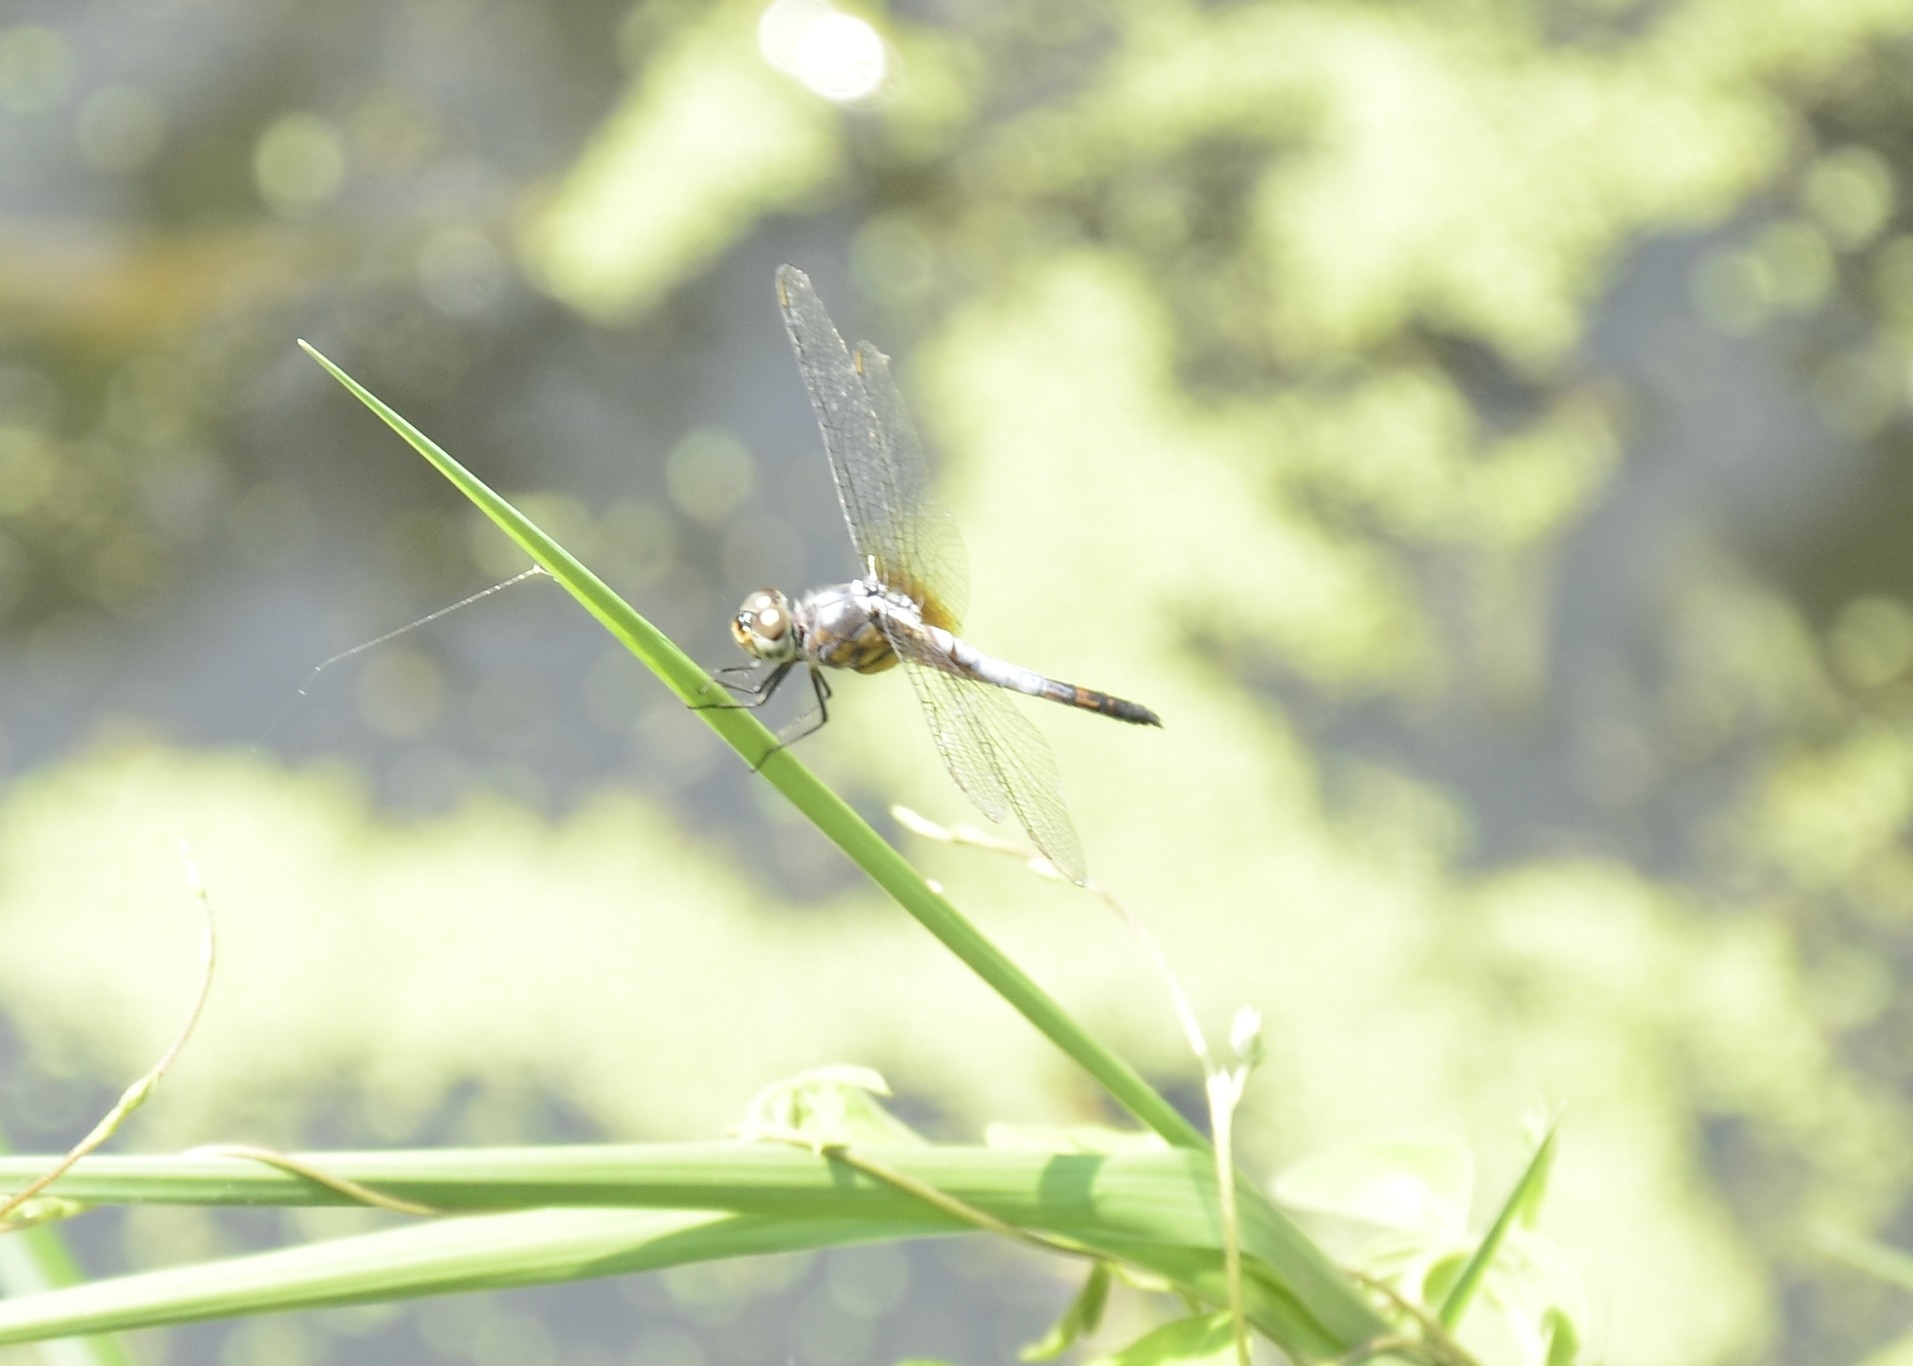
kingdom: Animalia
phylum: Arthropoda
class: Insecta
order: Odonata
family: Libellulidae
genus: Brachydiplax
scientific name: Brachydiplax chalybea
